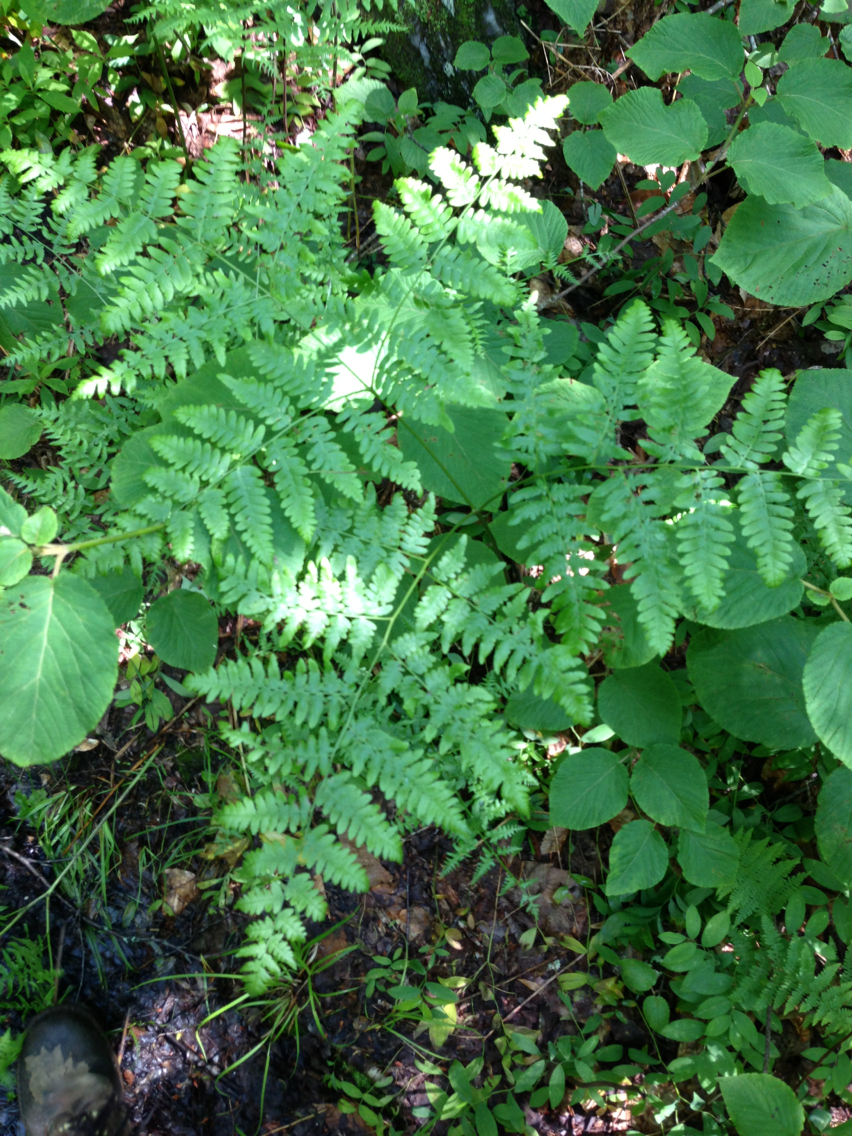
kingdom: Plantae
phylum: Tracheophyta
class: Polypodiopsida
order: Polypodiales
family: Dennstaedtiaceae
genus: Pteridium
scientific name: Pteridium aquilinum
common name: Bracken
